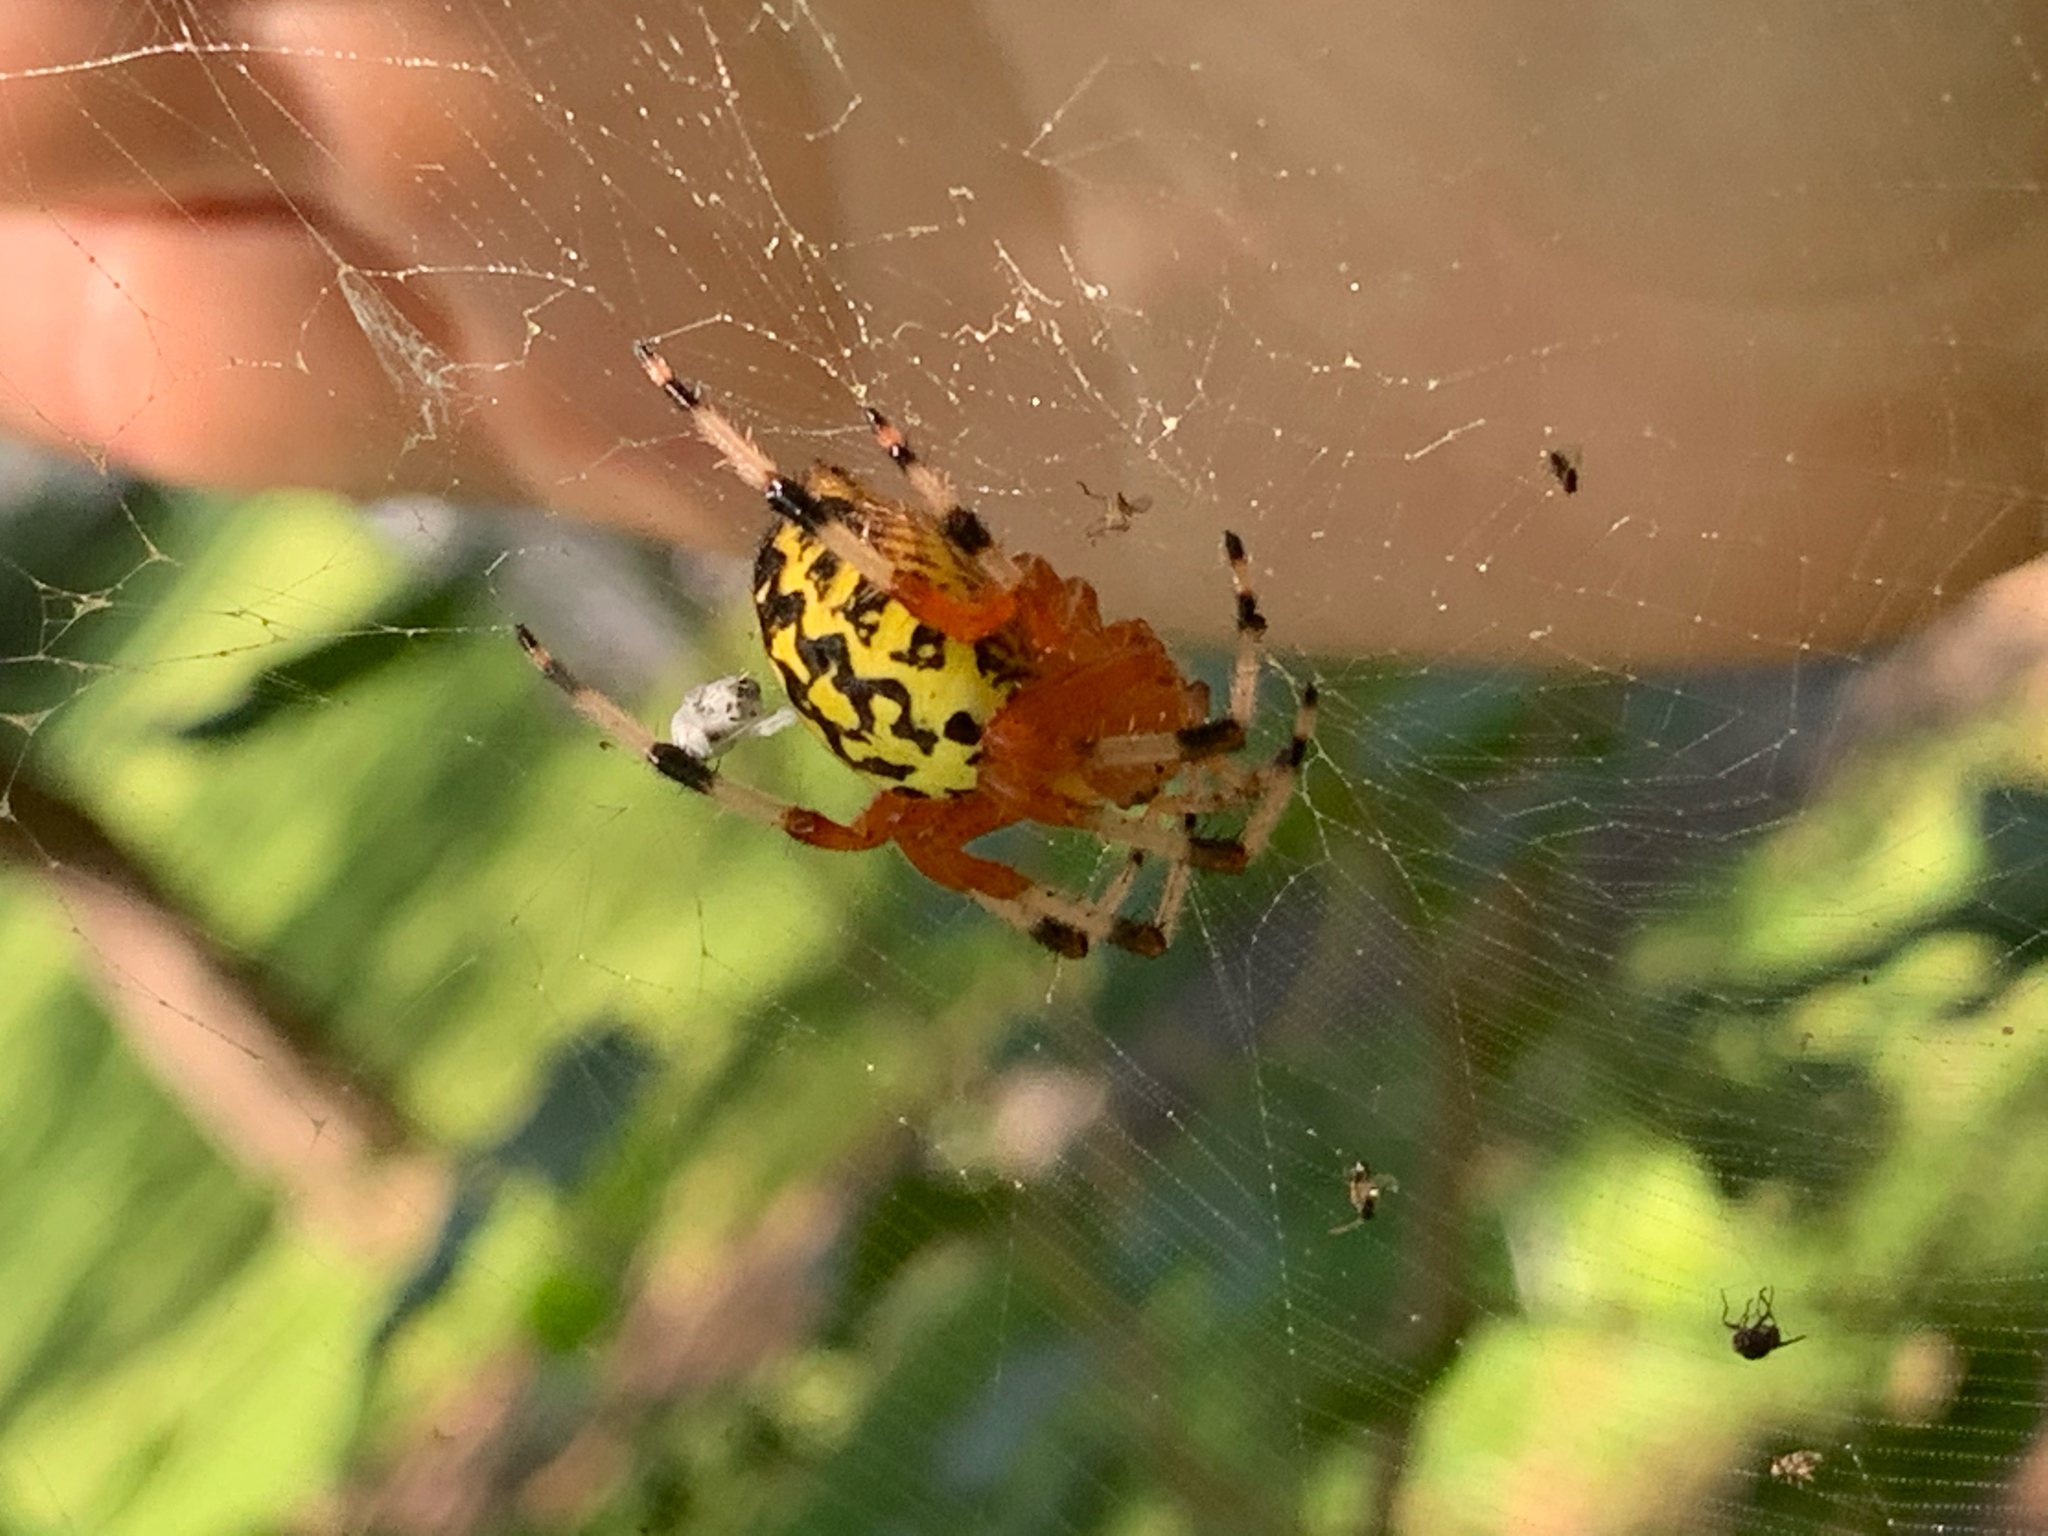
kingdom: Animalia
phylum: Arthropoda
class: Arachnida
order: Araneae
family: Araneidae
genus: Araneus
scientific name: Araneus marmoreus
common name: Marbled orbweaver
